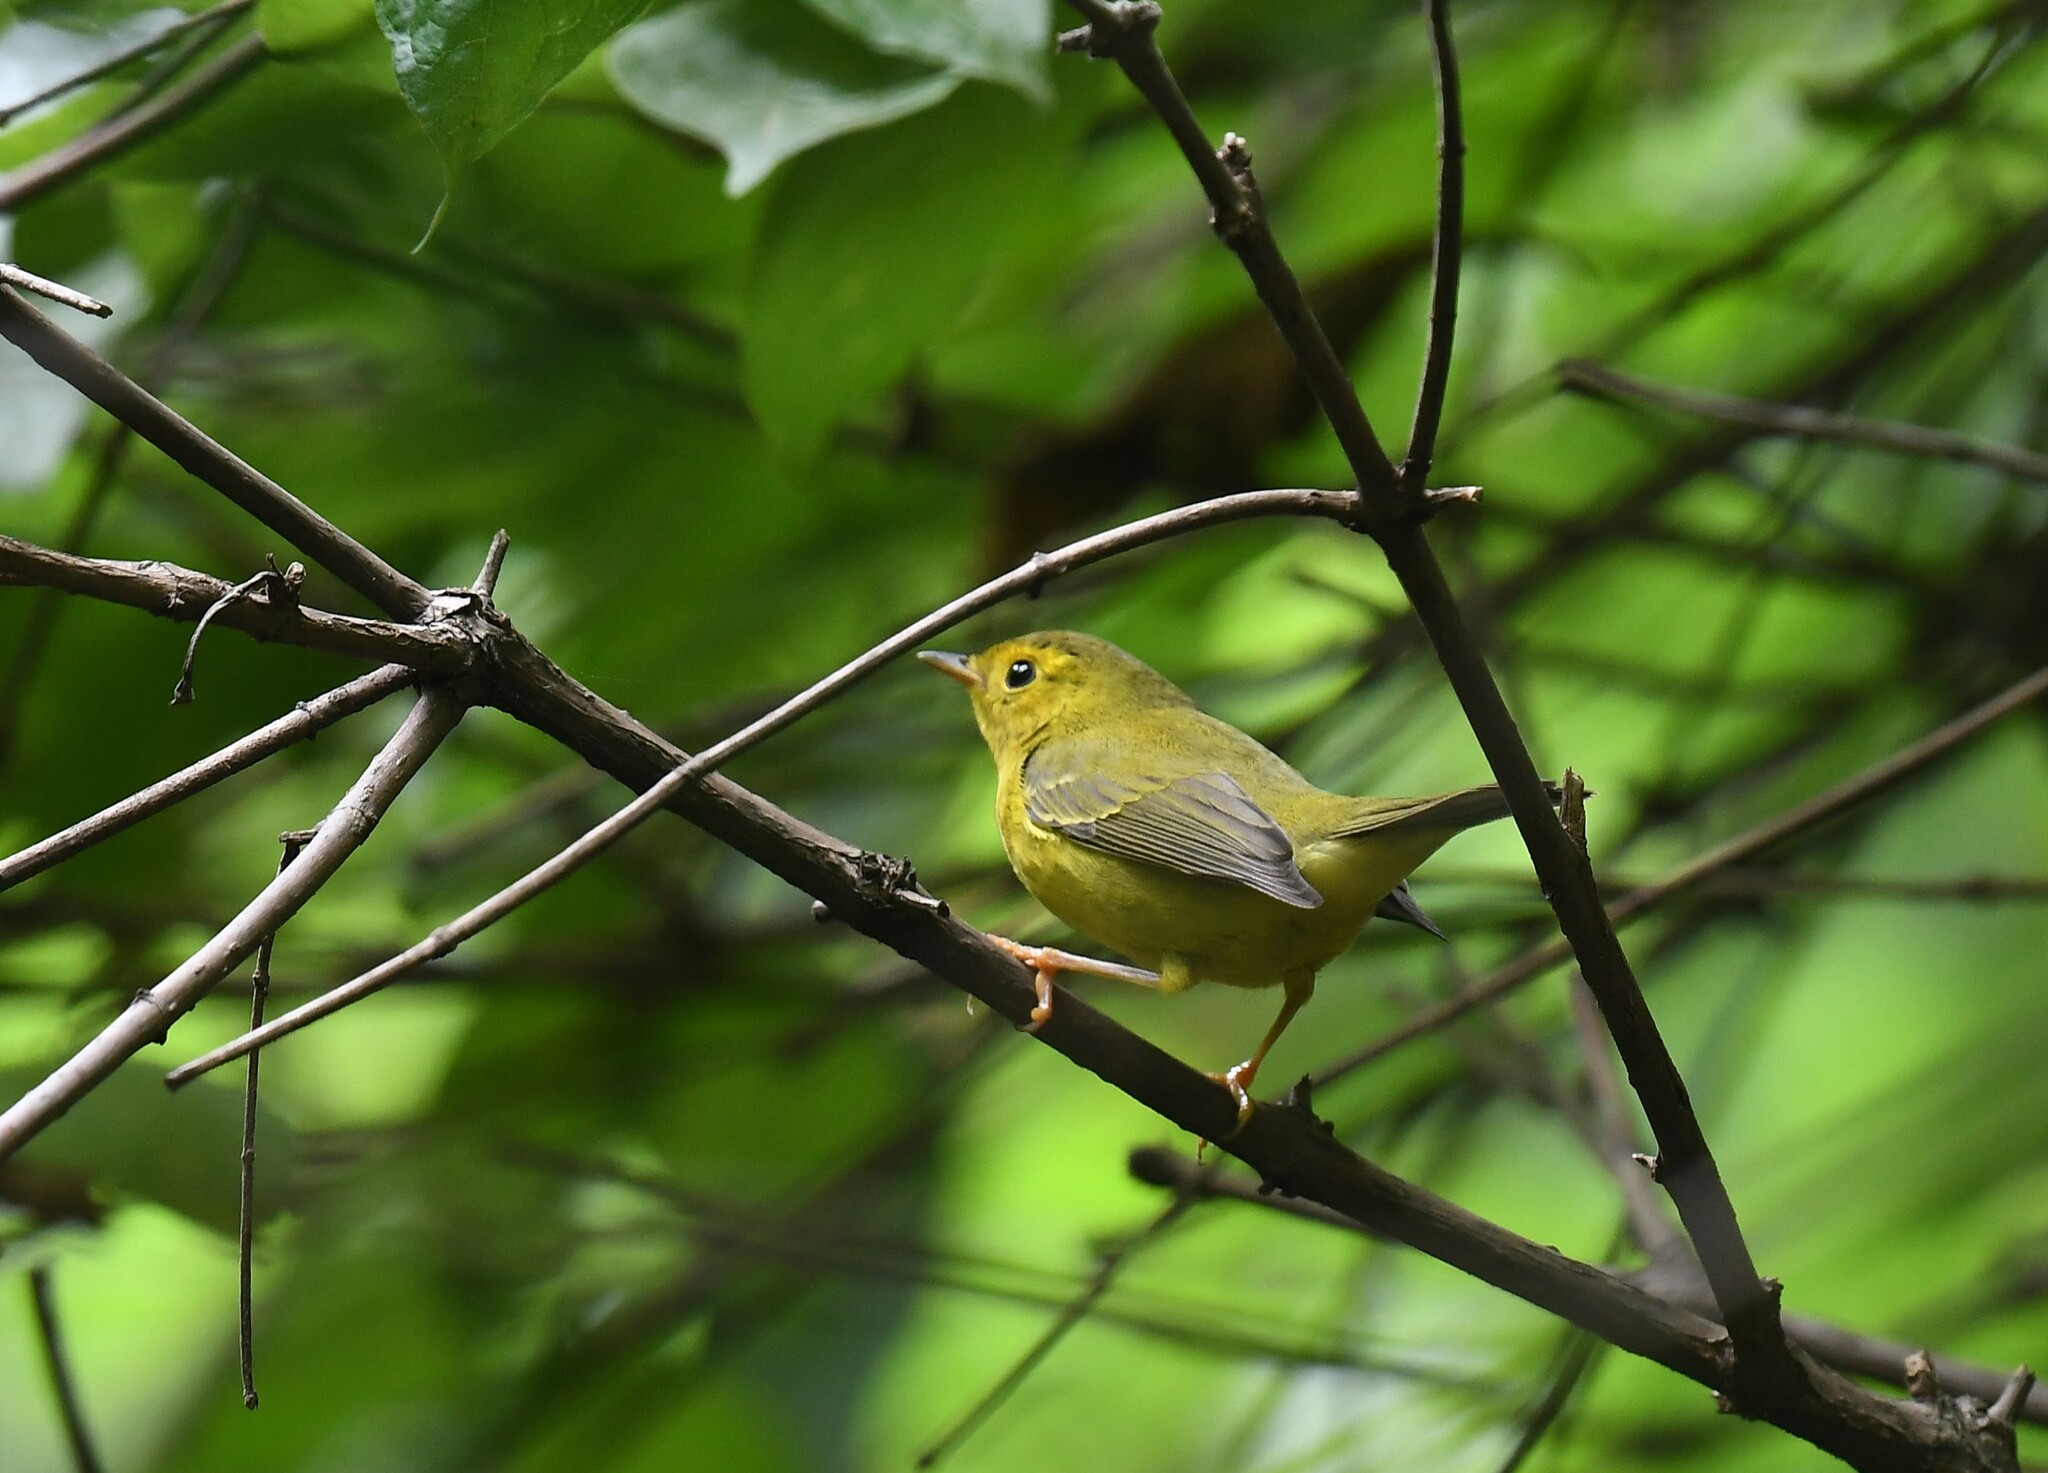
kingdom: Animalia
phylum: Chordata
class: Aves
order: Passeriformes
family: Parulidae
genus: Cardellina
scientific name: Cardellina pusilla
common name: Wilson's warbler
